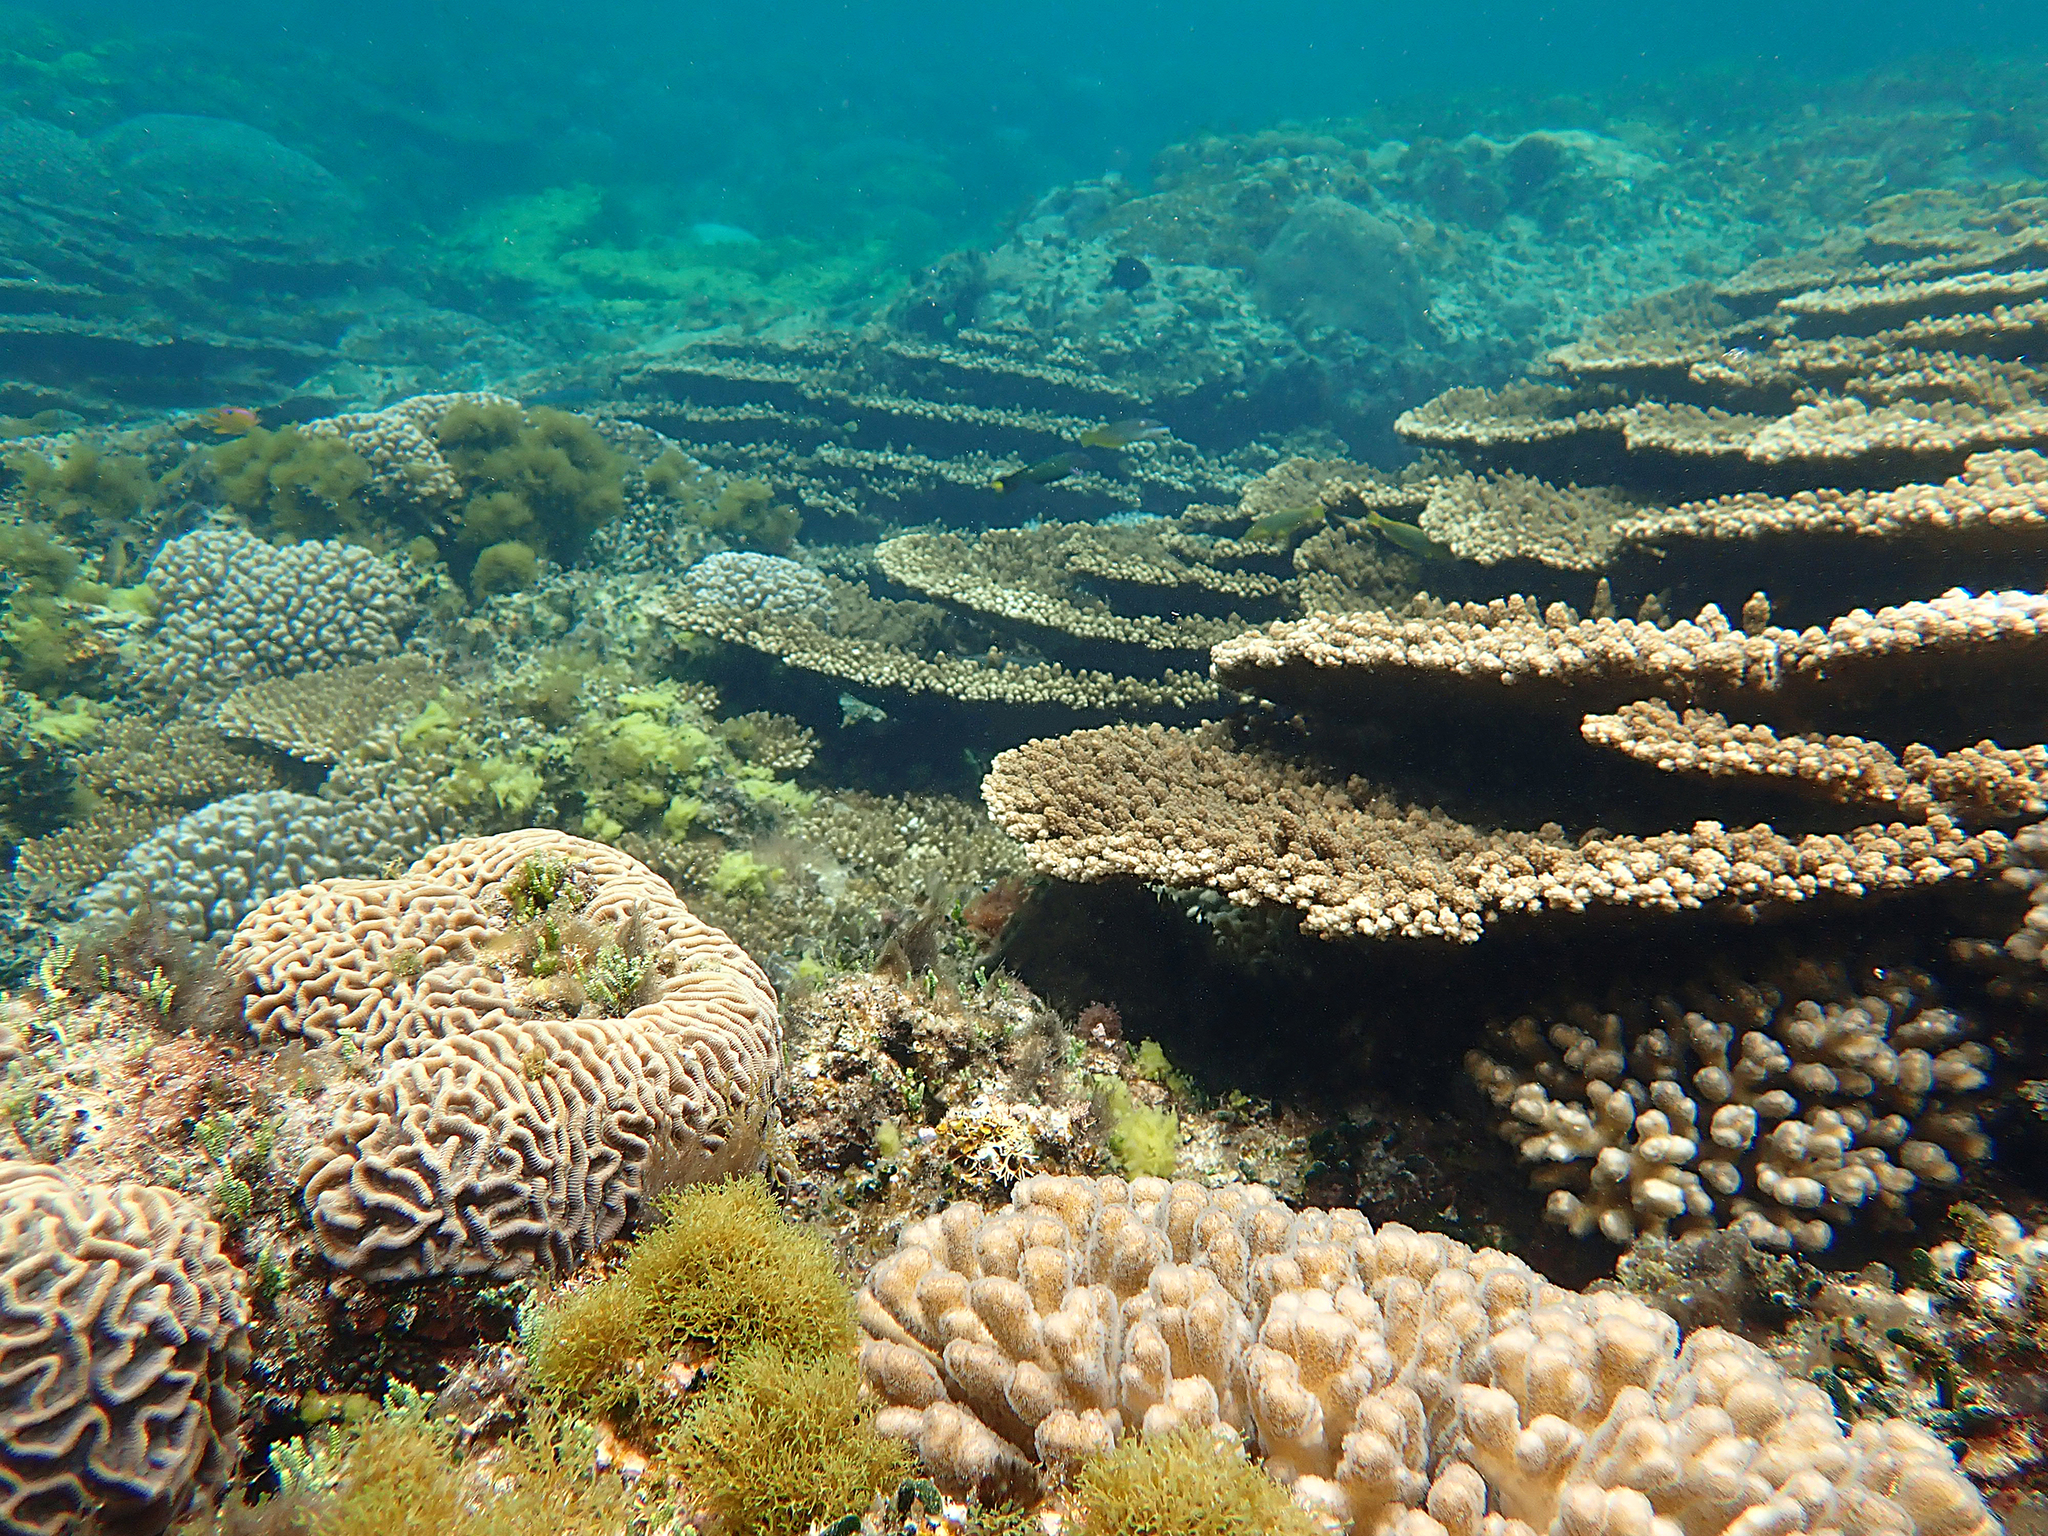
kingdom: Animalia
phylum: Cnidaria
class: Anthozoa
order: Scleractinia
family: Acroporidae
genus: Acropora
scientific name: Acropora solitaryensis
